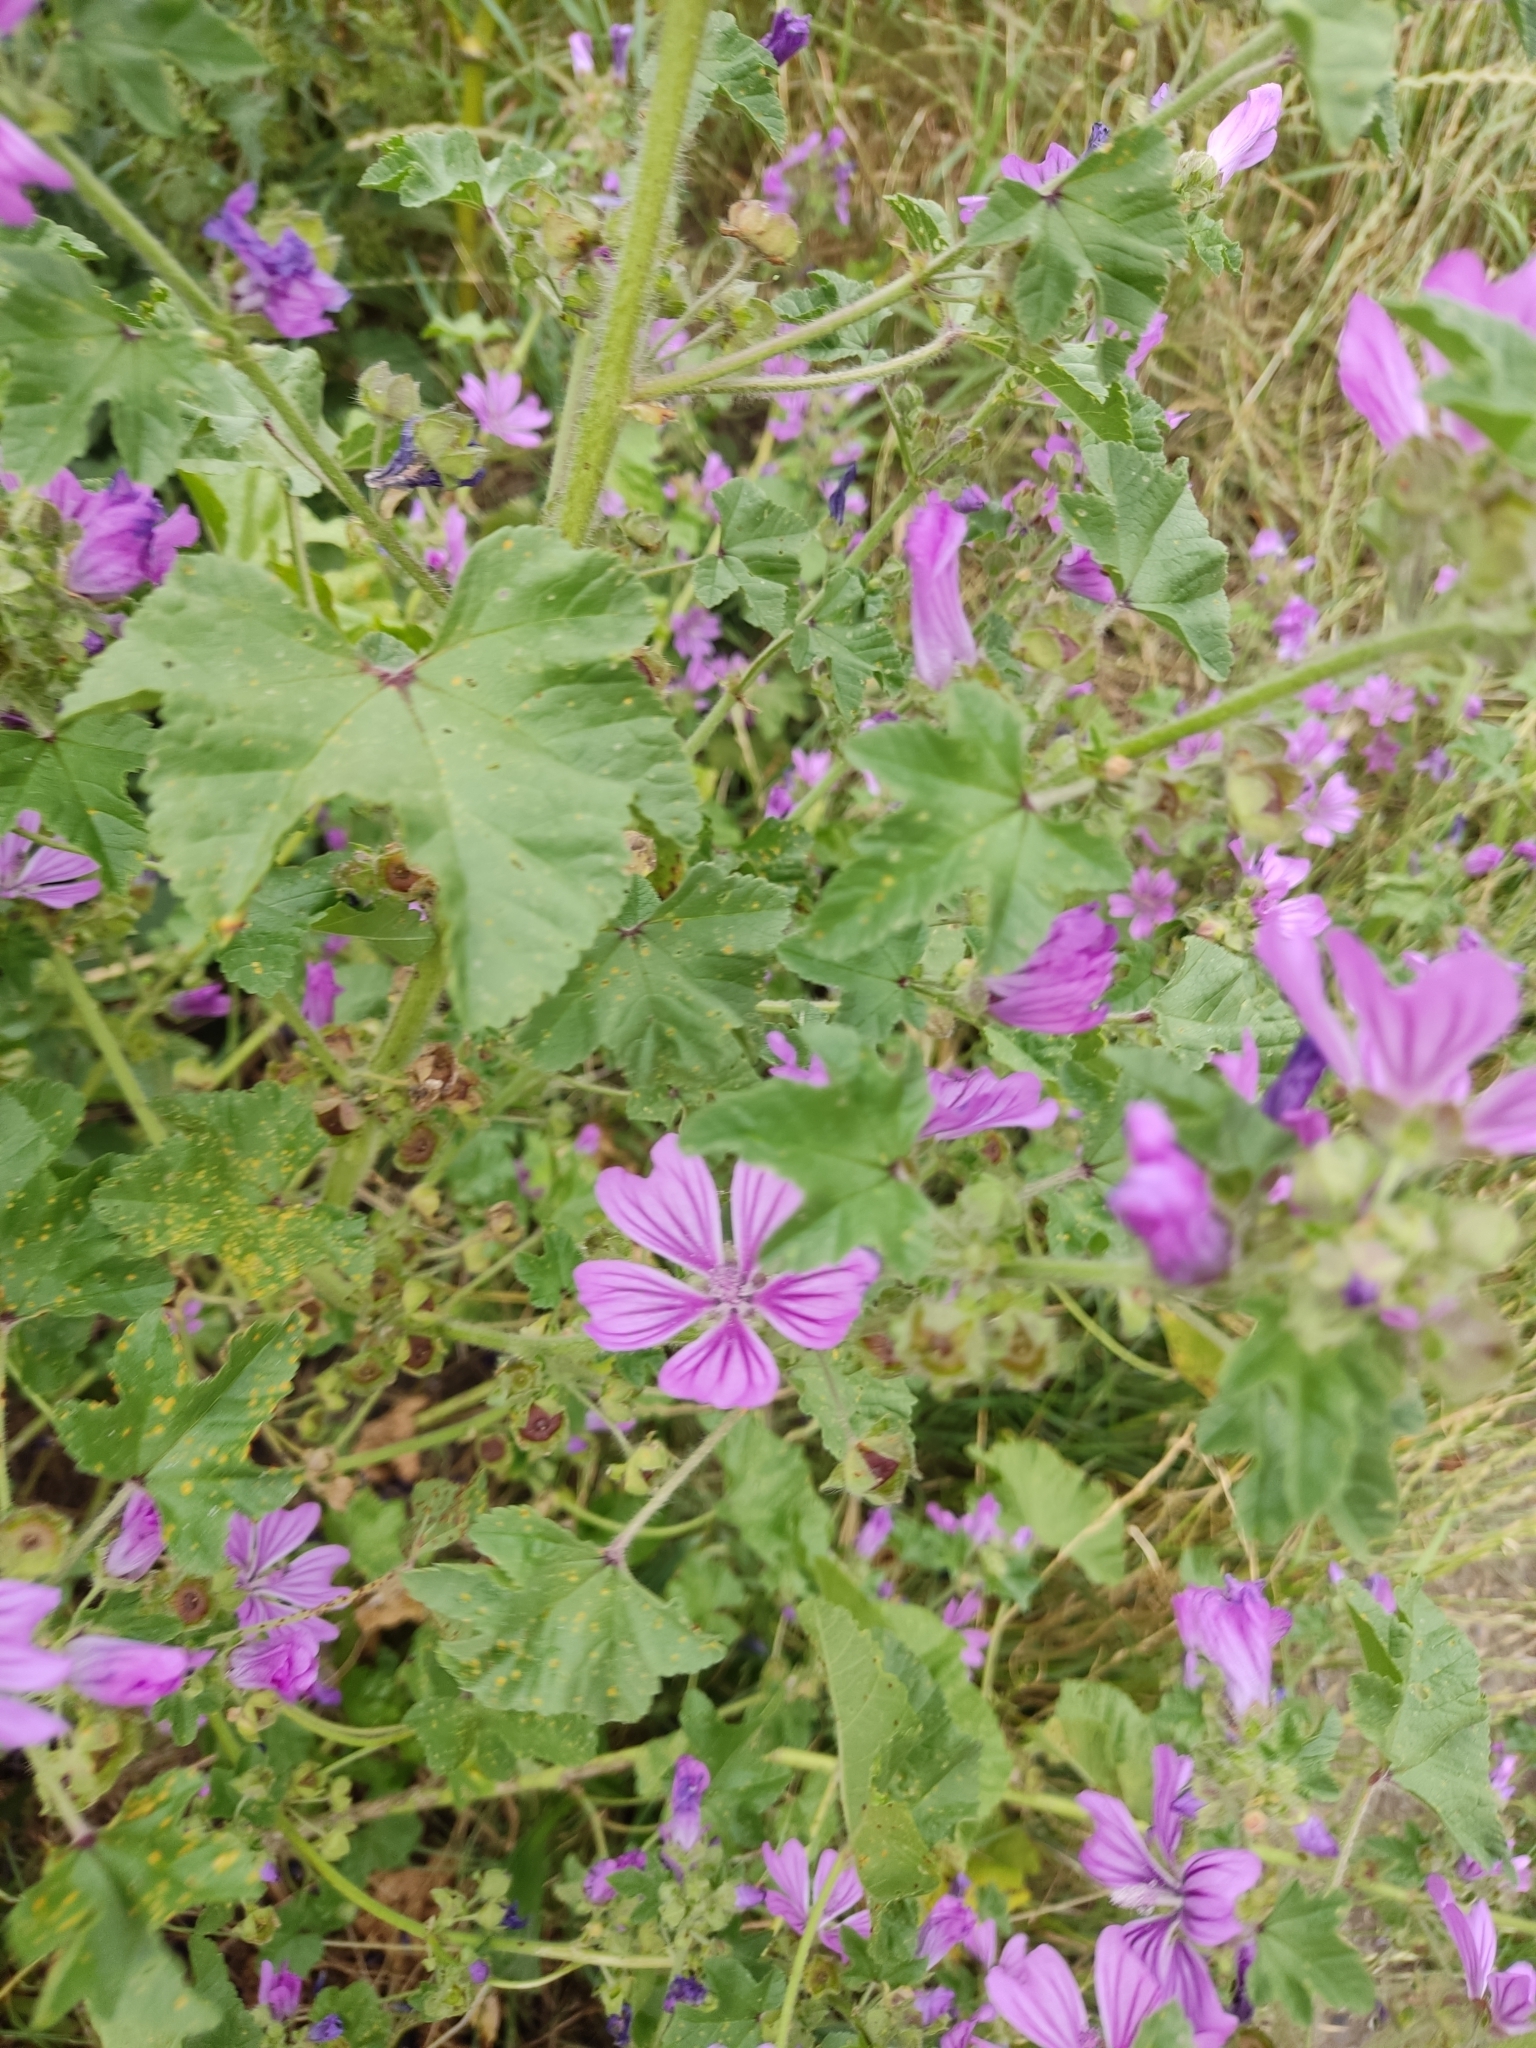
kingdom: Plantae
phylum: Tracheophyta
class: Magnoliopsida
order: Malvales
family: Malvaceae
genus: Malva
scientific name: Malva sylvestris
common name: Common mallow
